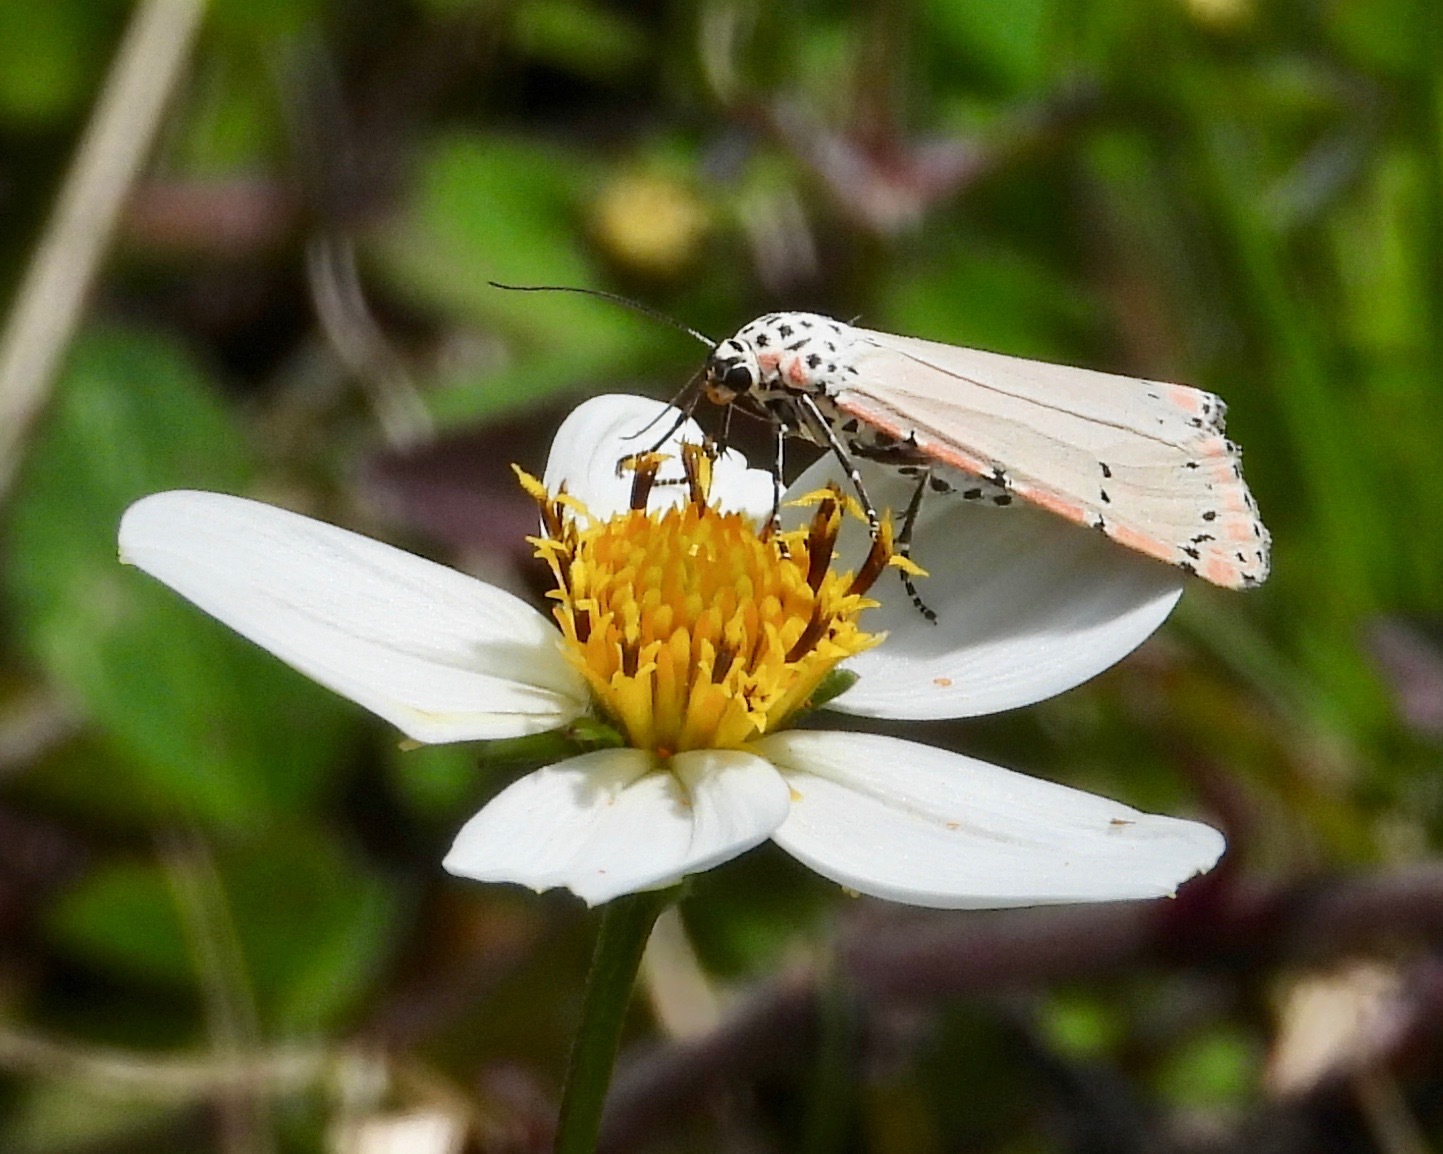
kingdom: Animalia
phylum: Arthropoda
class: Insecta
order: Lepidoptera
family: Erebidae
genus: Utetheisa
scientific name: Utetheisa ornatrix
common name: Beautiful utetheisa
